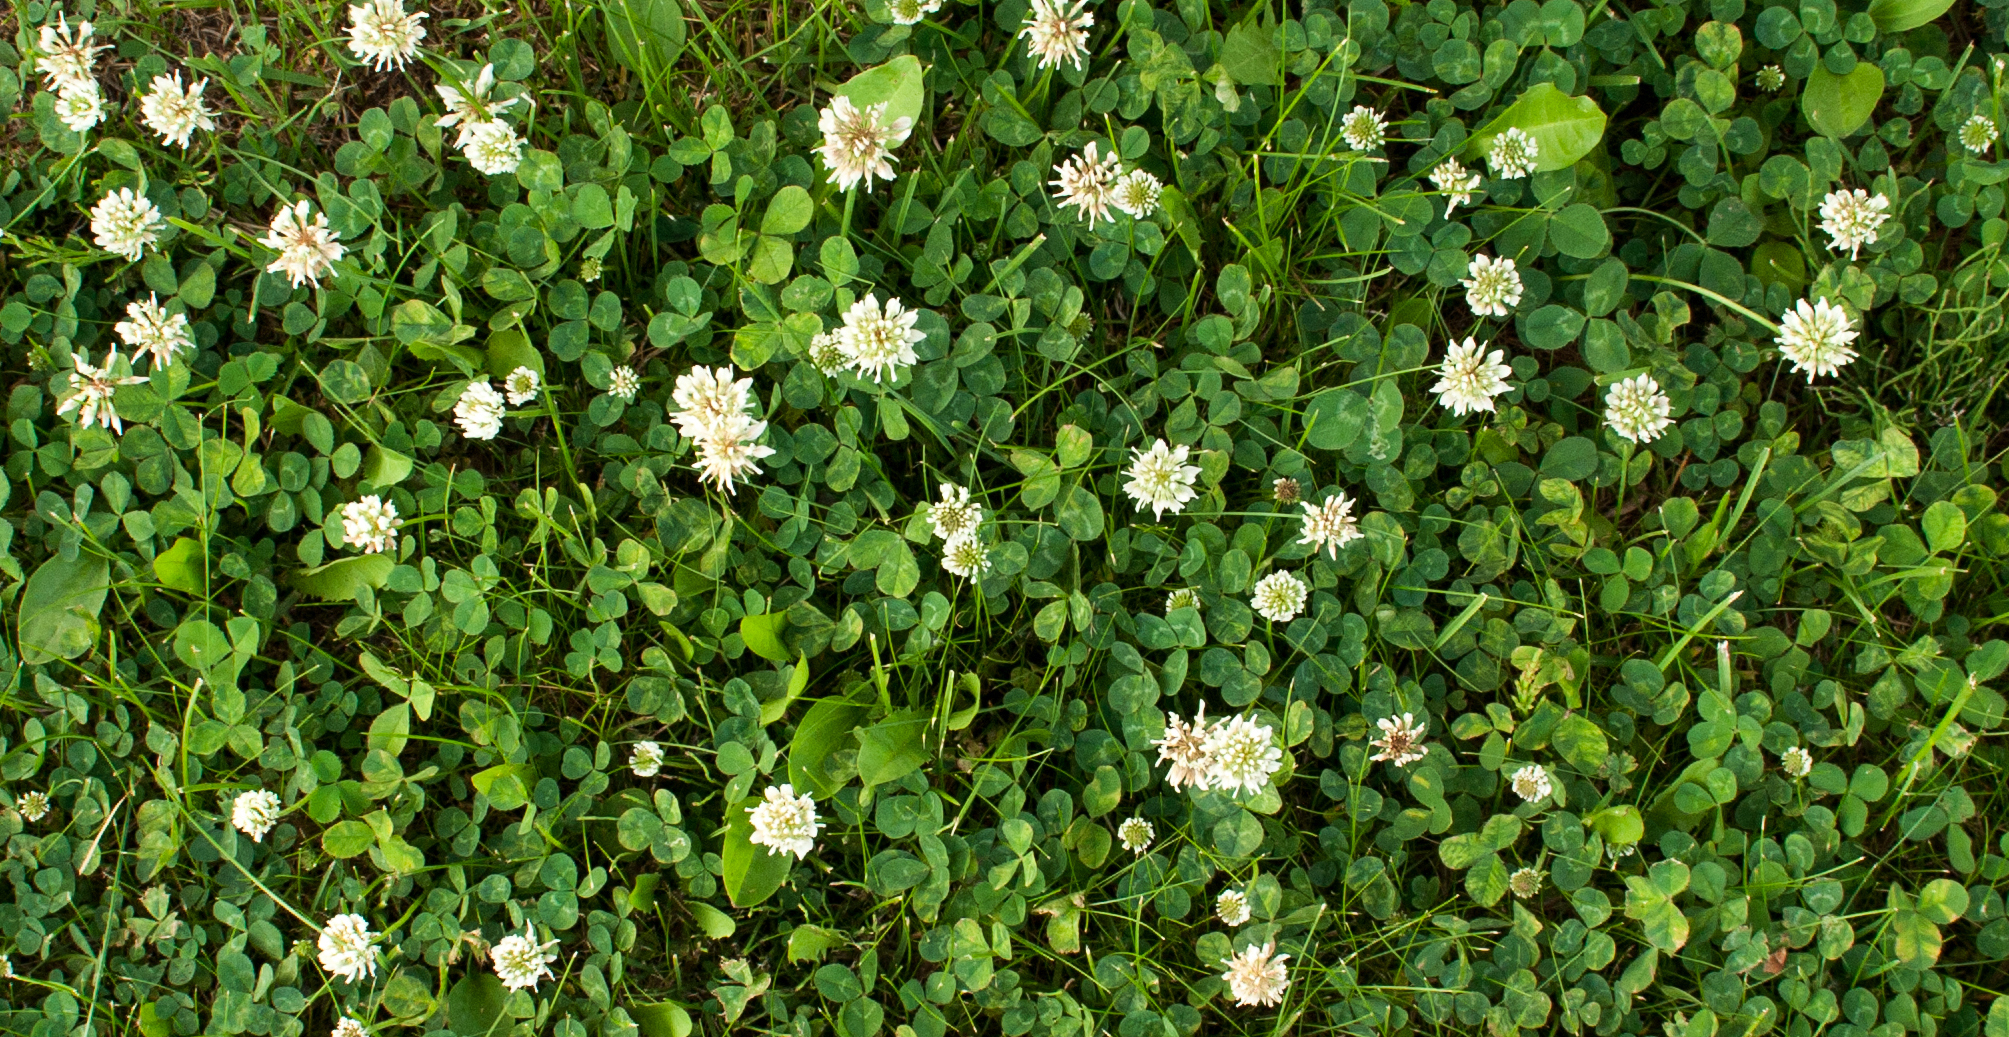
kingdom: Plantae
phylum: Tracheophyta
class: Magnoliopsida
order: Fabales
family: Fabaceae
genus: Trifolium
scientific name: Trifolium repens
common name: White clover
